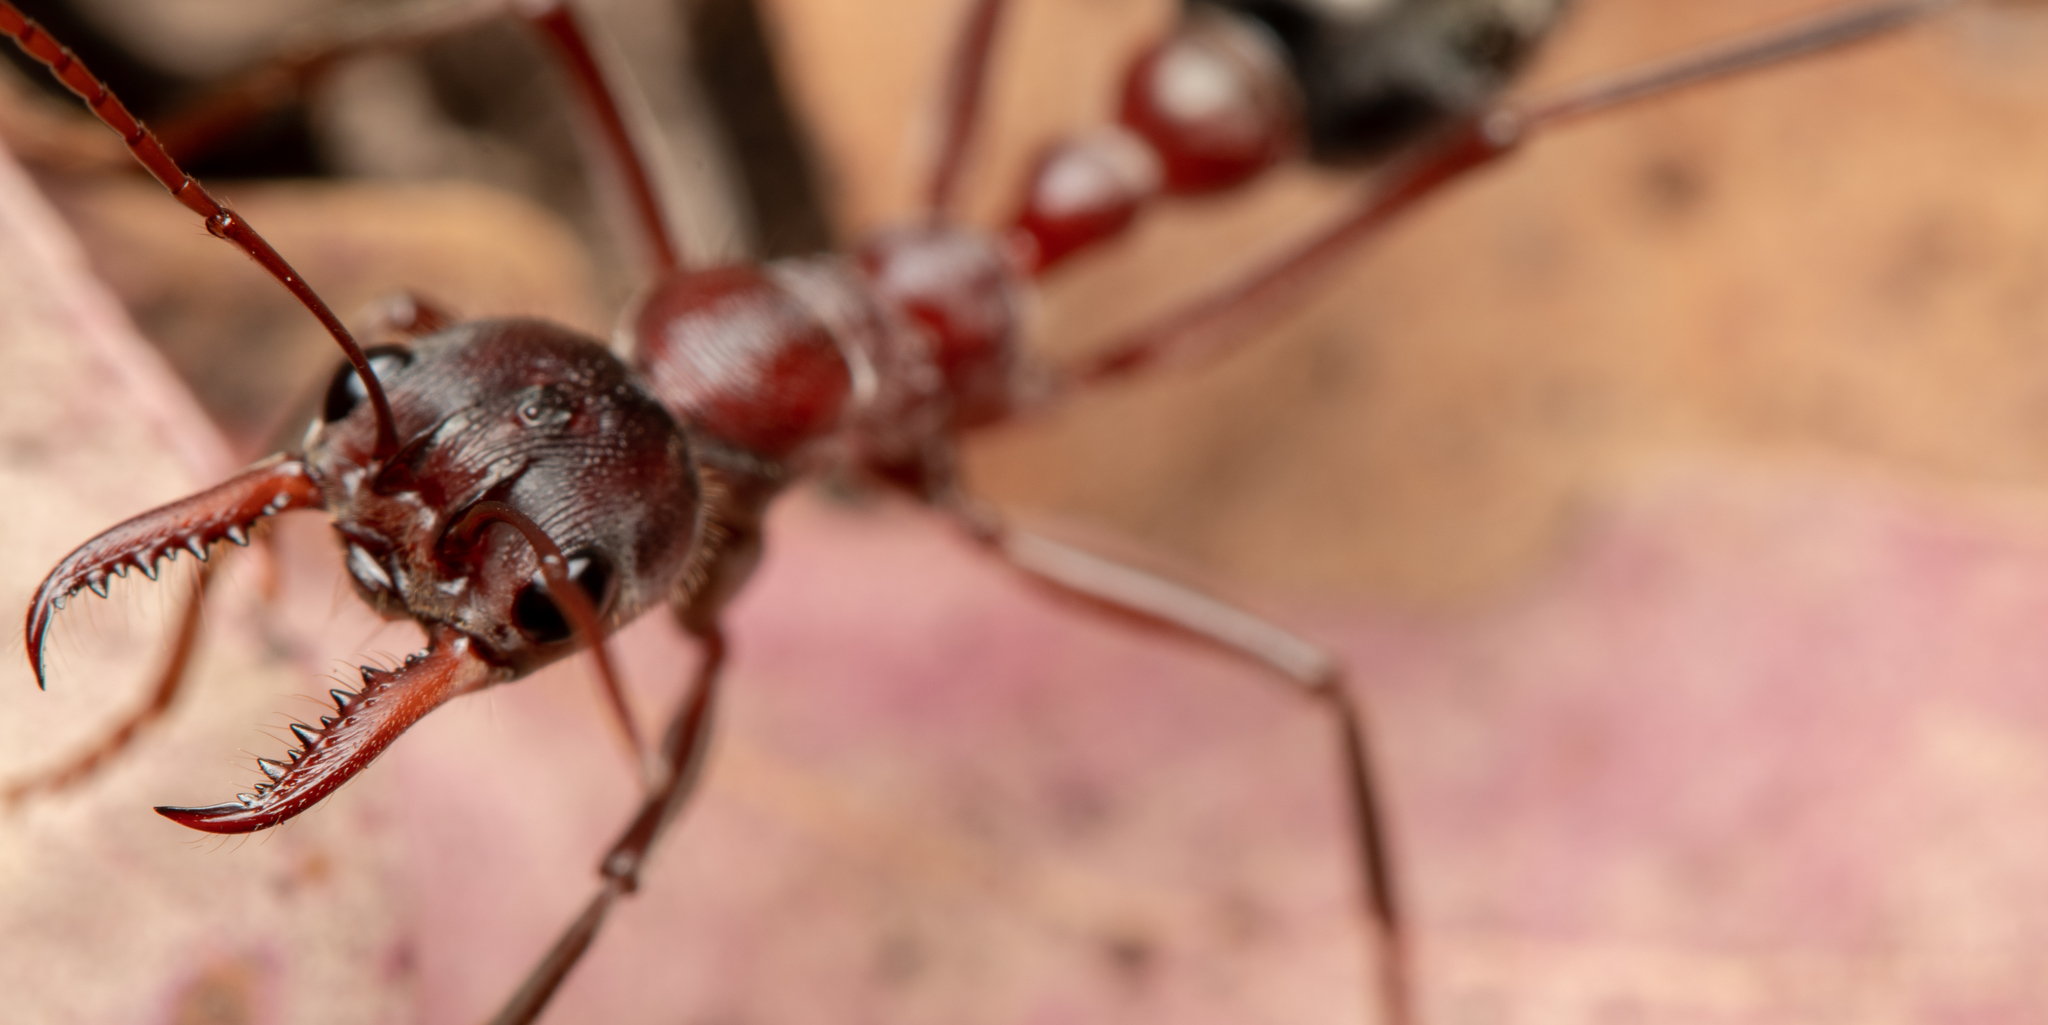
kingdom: Animalia
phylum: Arthropoda
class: Insecta
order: Hymenoptera
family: Formicidae
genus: Myrmecia
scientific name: Myrmecia comata
